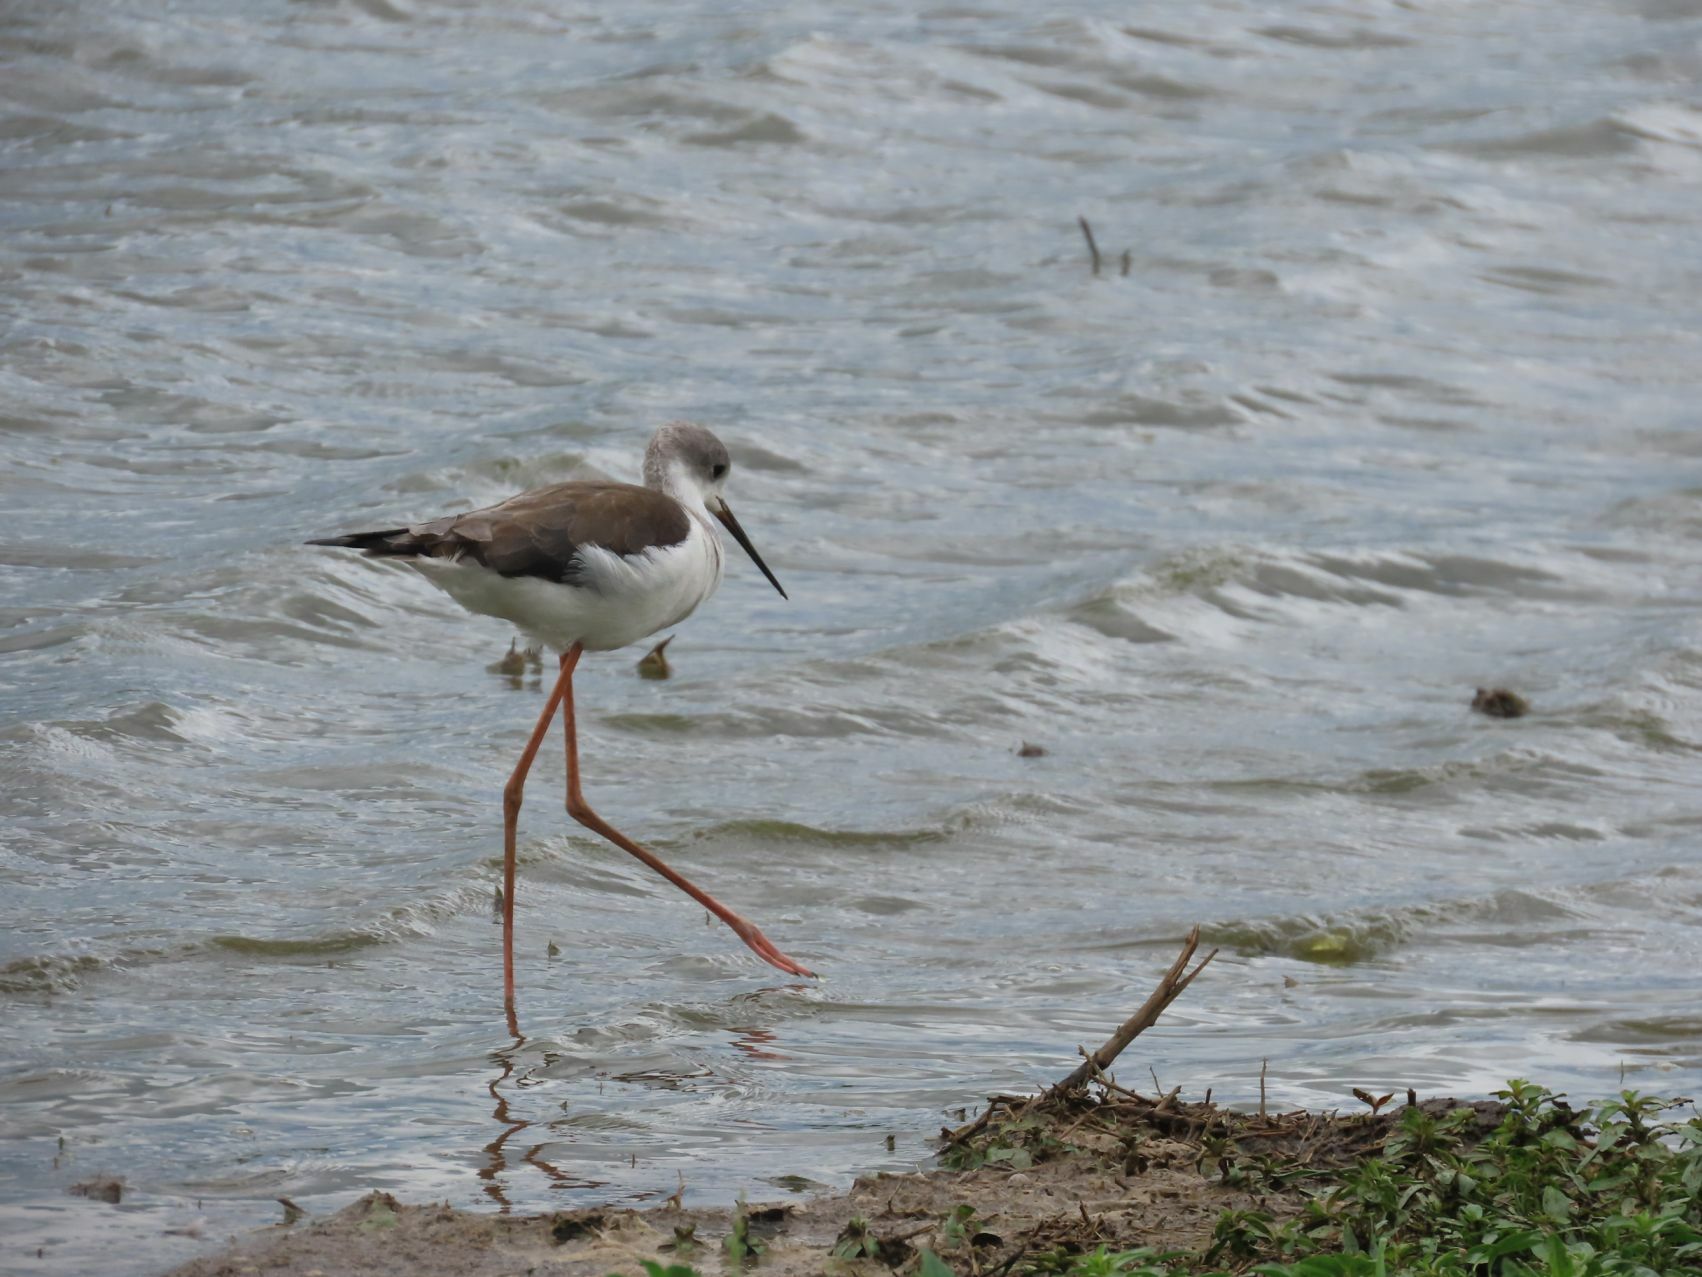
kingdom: Animalia
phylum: Chordata
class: Aves
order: Charadriiformes
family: Recurvirostridae
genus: Himantopus
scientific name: Himantopus himantopus
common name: Black-winged stilt
